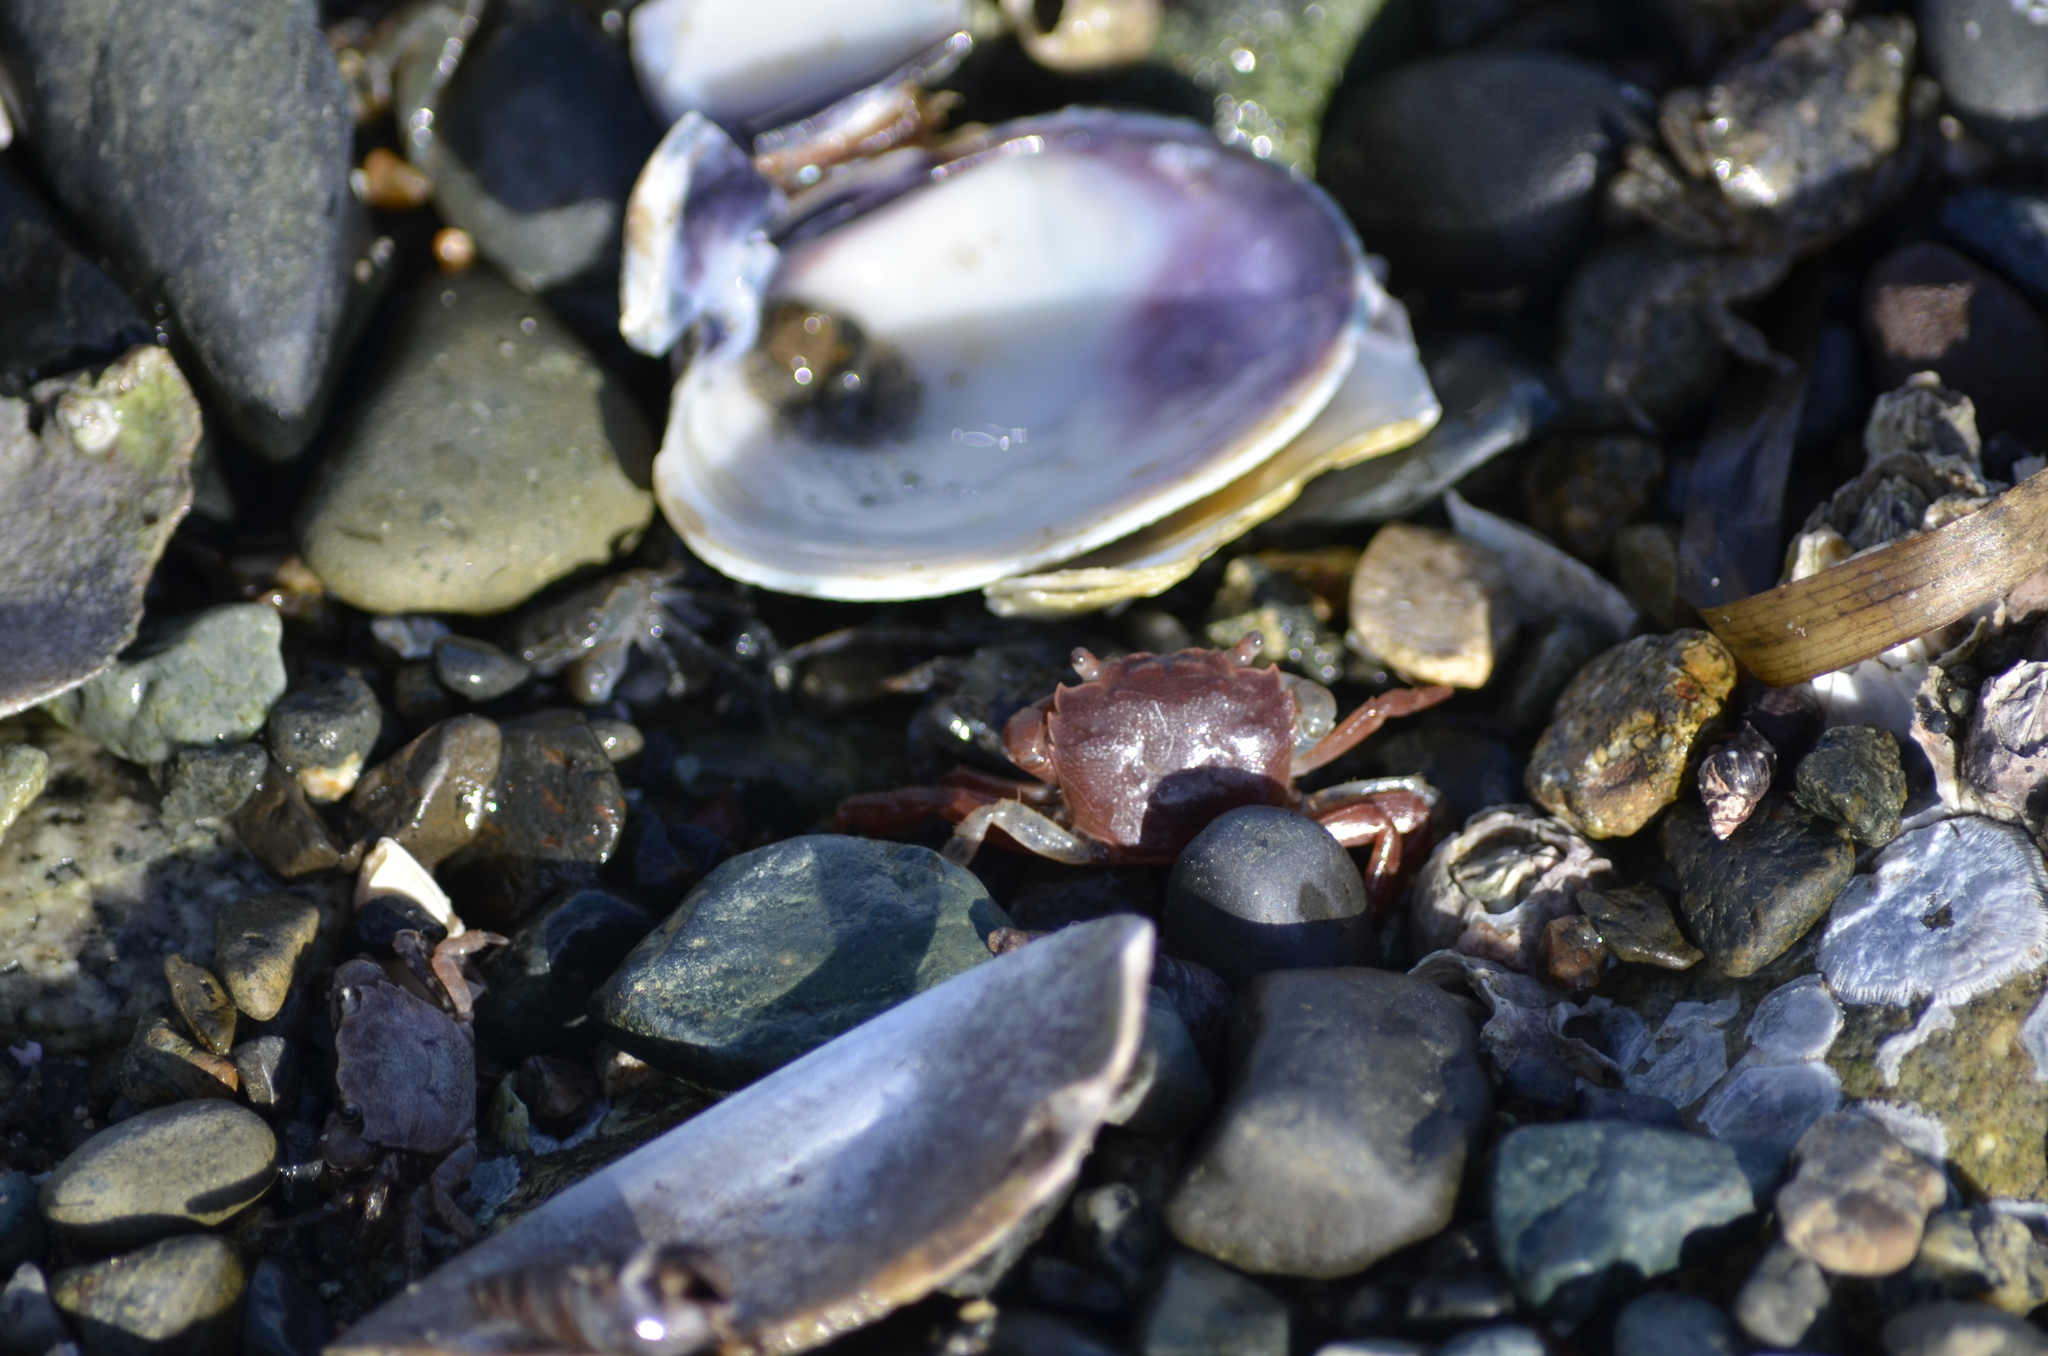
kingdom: Animalia
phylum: Arthropoda
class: Malacostraca
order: Decapoda
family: Varunidae
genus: Hemigrapsus
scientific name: Hemigrapsus oregonensis
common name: Yellow shore crab
